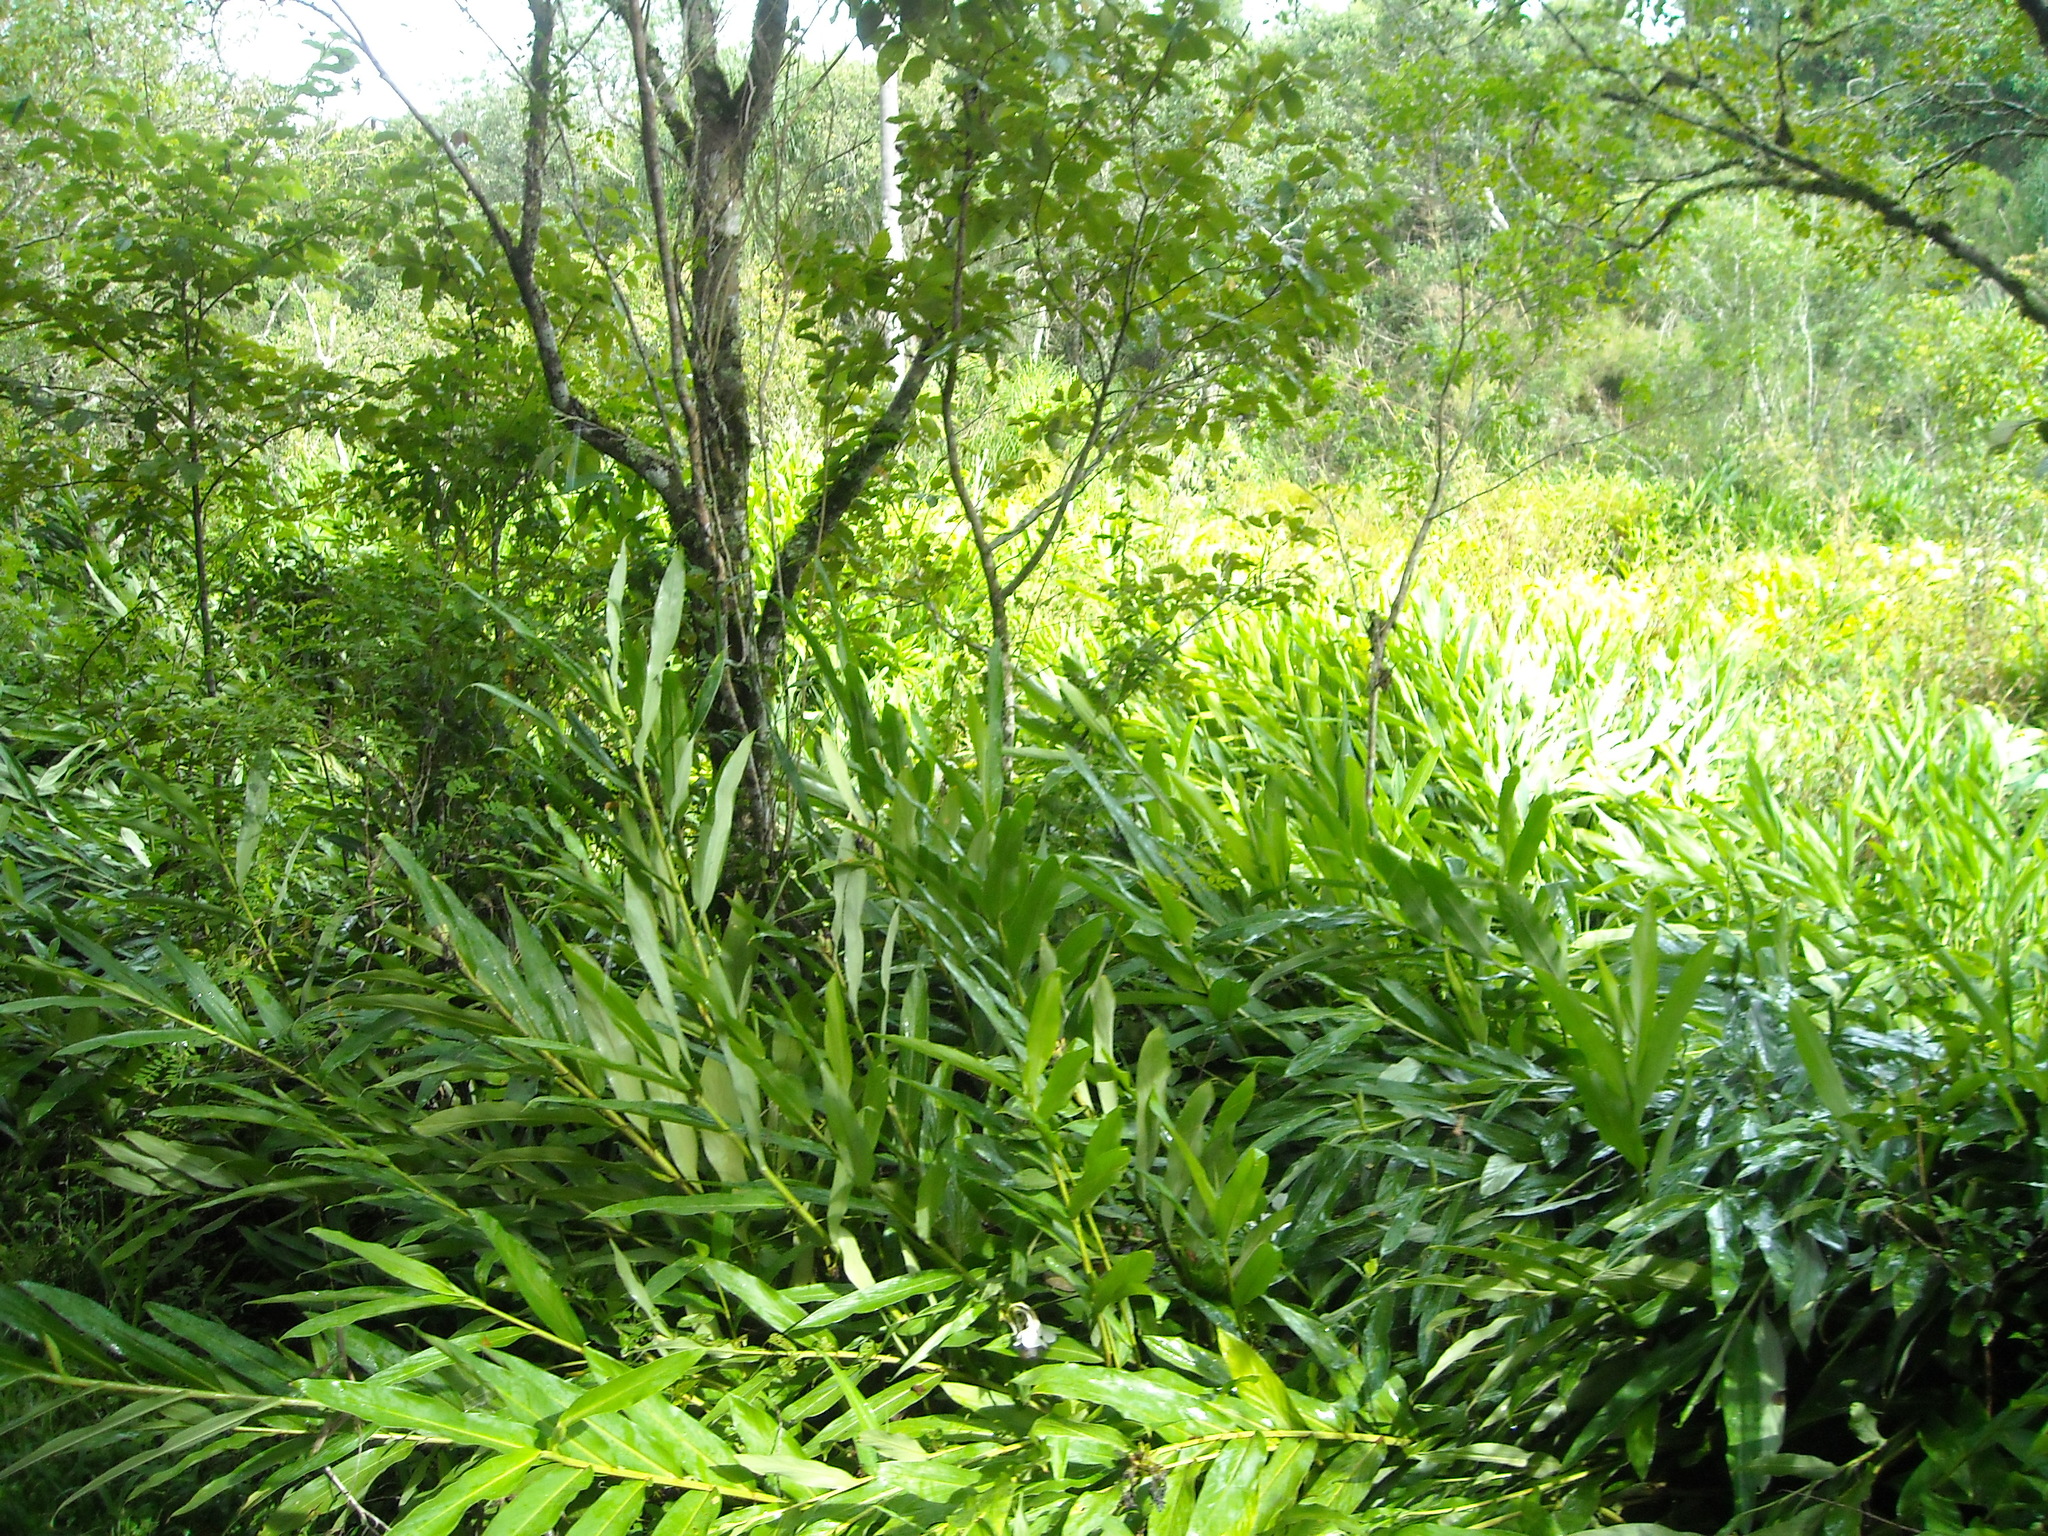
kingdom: Plantae
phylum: Tracheophyta
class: Liliopsida
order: Zingiberales
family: Zingiberaceae
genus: Hedychium
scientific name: Hedychium coronarium
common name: White garland-lily
